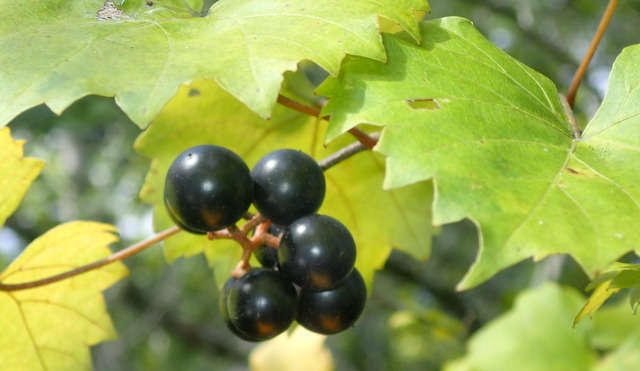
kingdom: Plantae
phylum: Tracheophyta
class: Magnoliopsida
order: Vitales
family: Vitaceae
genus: Vitis
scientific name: Vitis rotundifolia
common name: Muscadine grape
